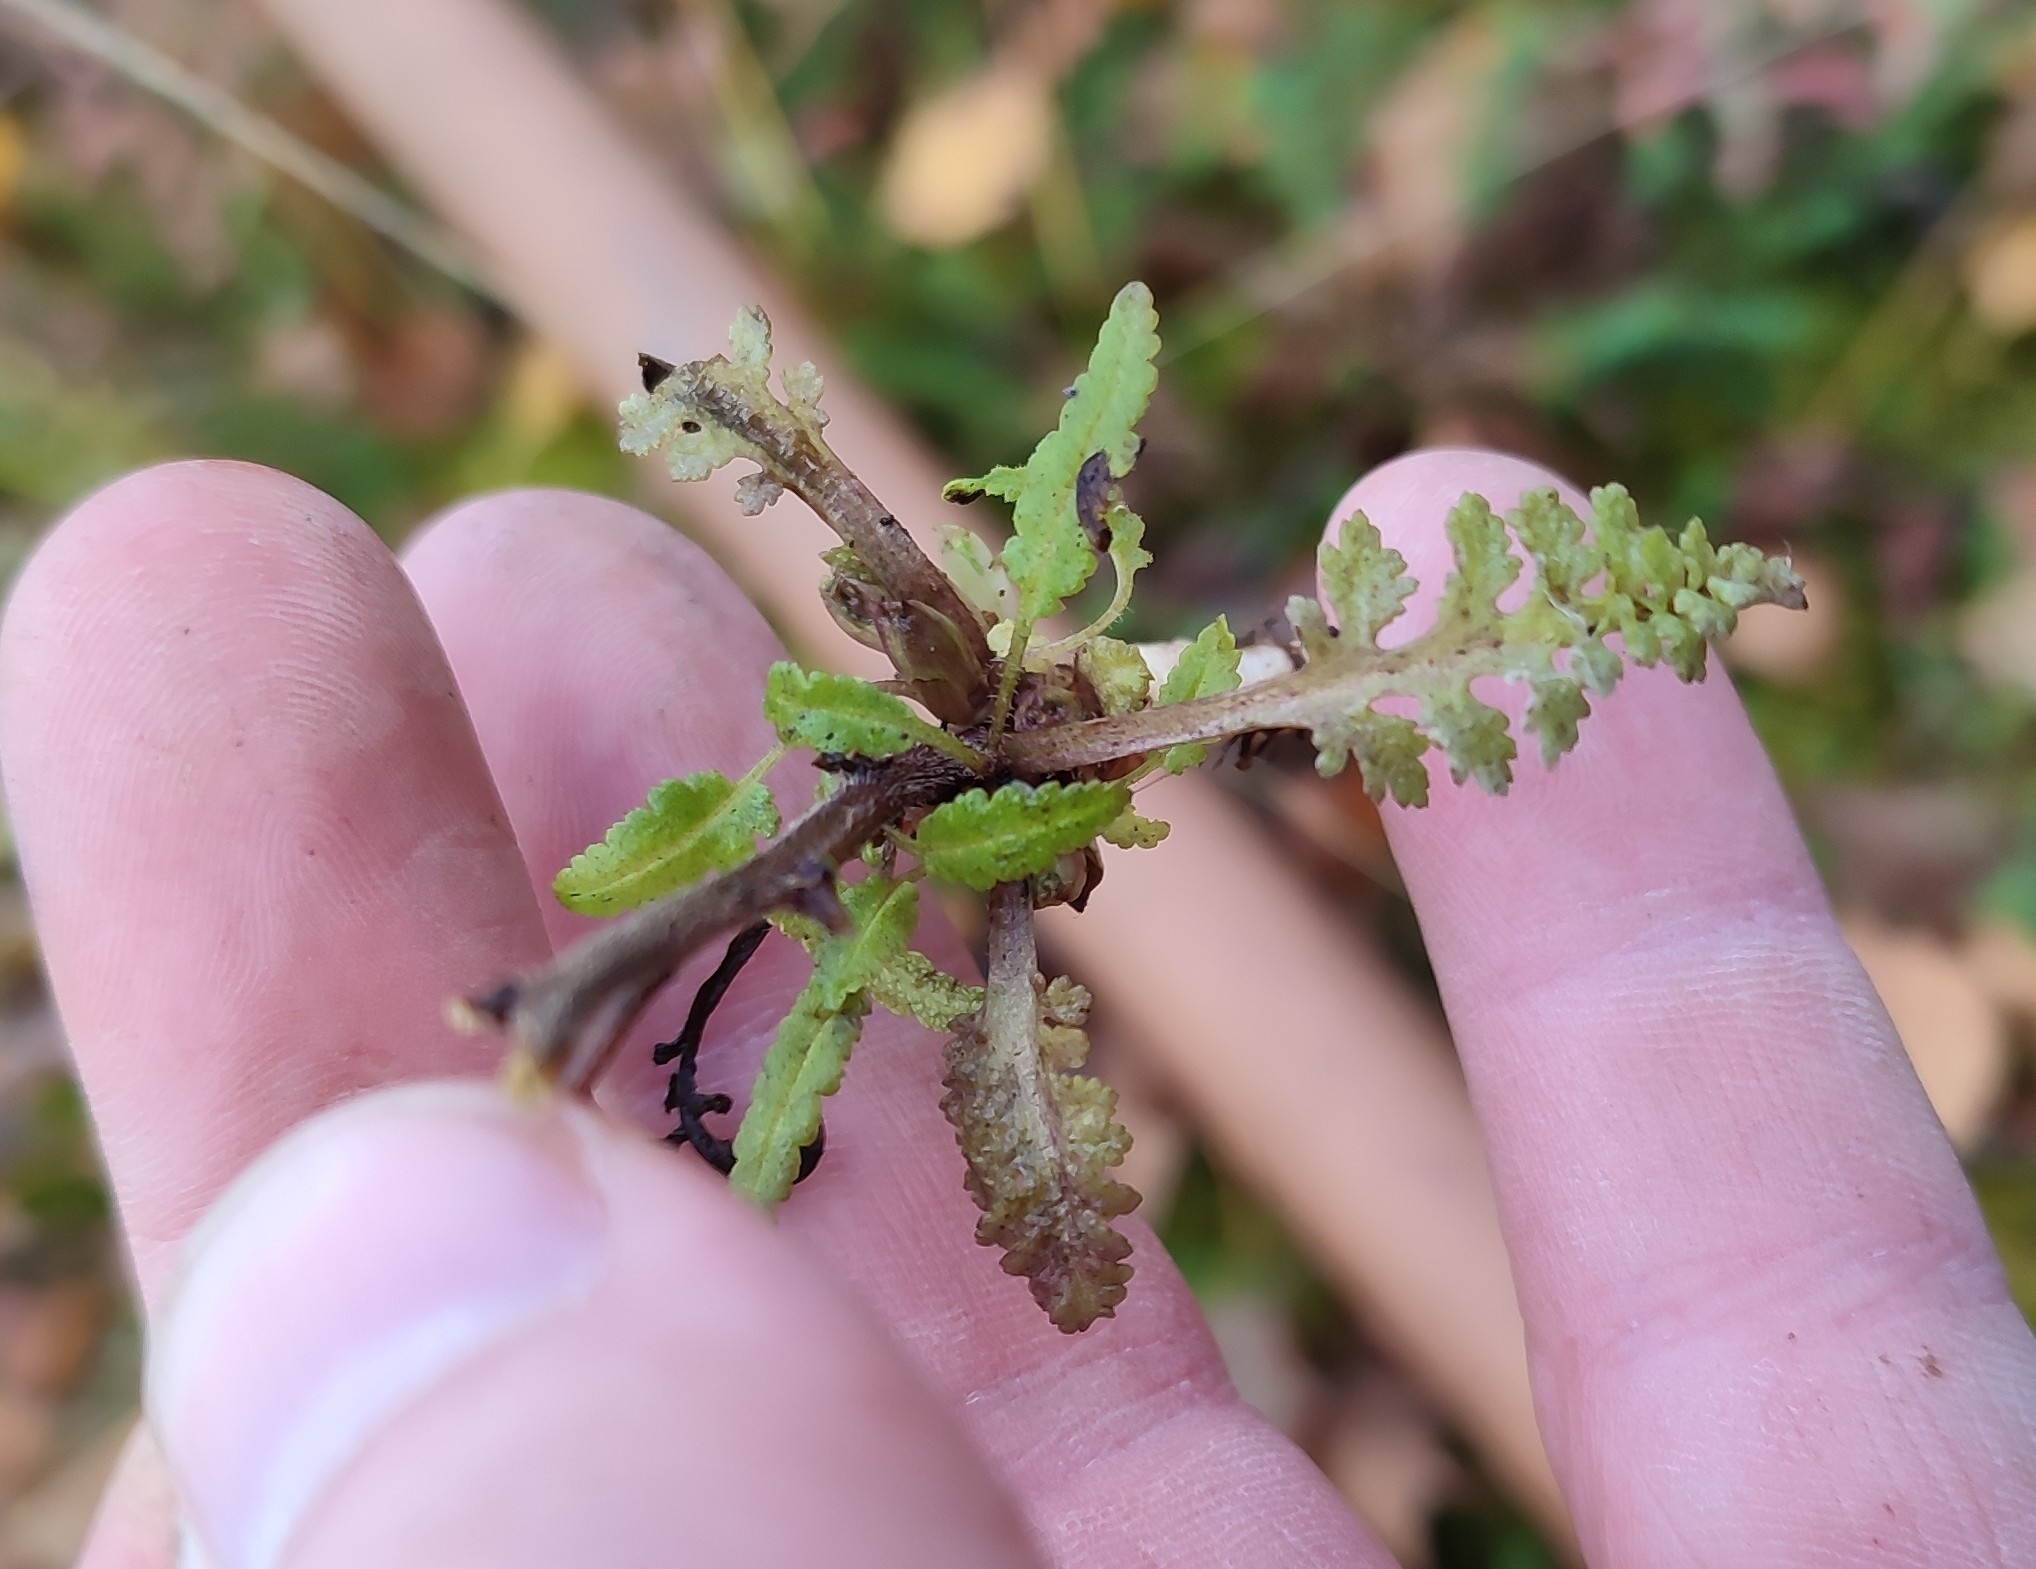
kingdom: Plantae
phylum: Tracheophyta
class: Magnoliopsida
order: Lamiales
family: Orobanchaceae
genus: Pedicularis
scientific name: Pedicularis labradorica
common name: Labrador lousewort
